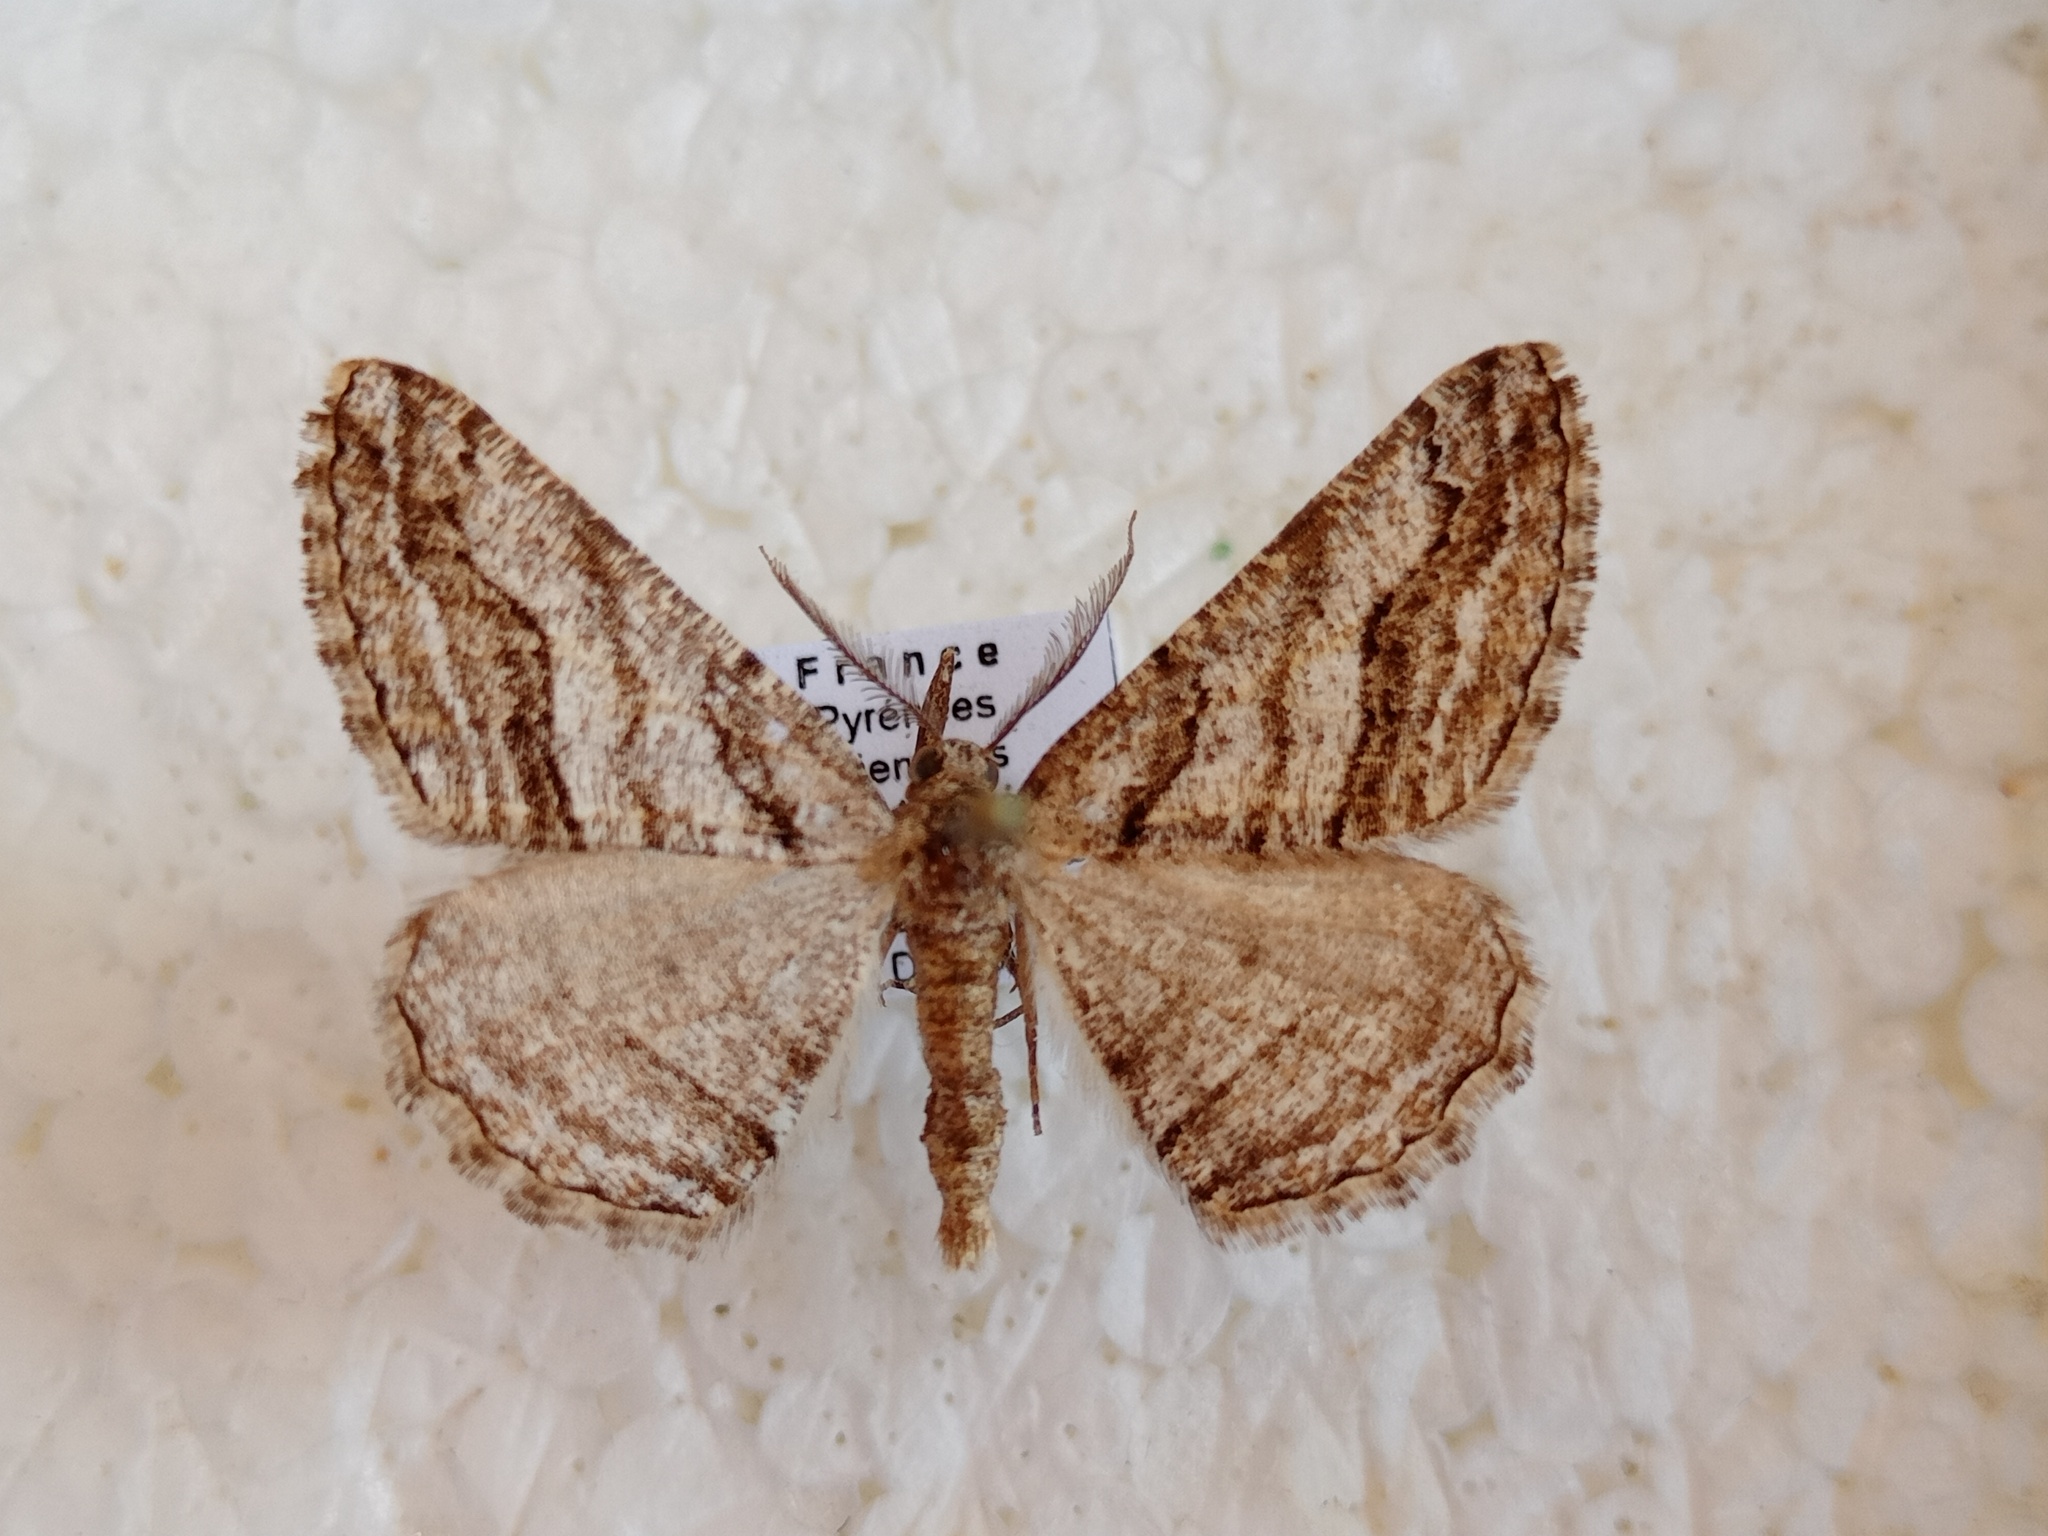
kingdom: Animalia
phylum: Arthropoda
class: Insecta
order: Lepidoptera
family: Geometridae
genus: Calamodes
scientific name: Calamodes occitanaria
